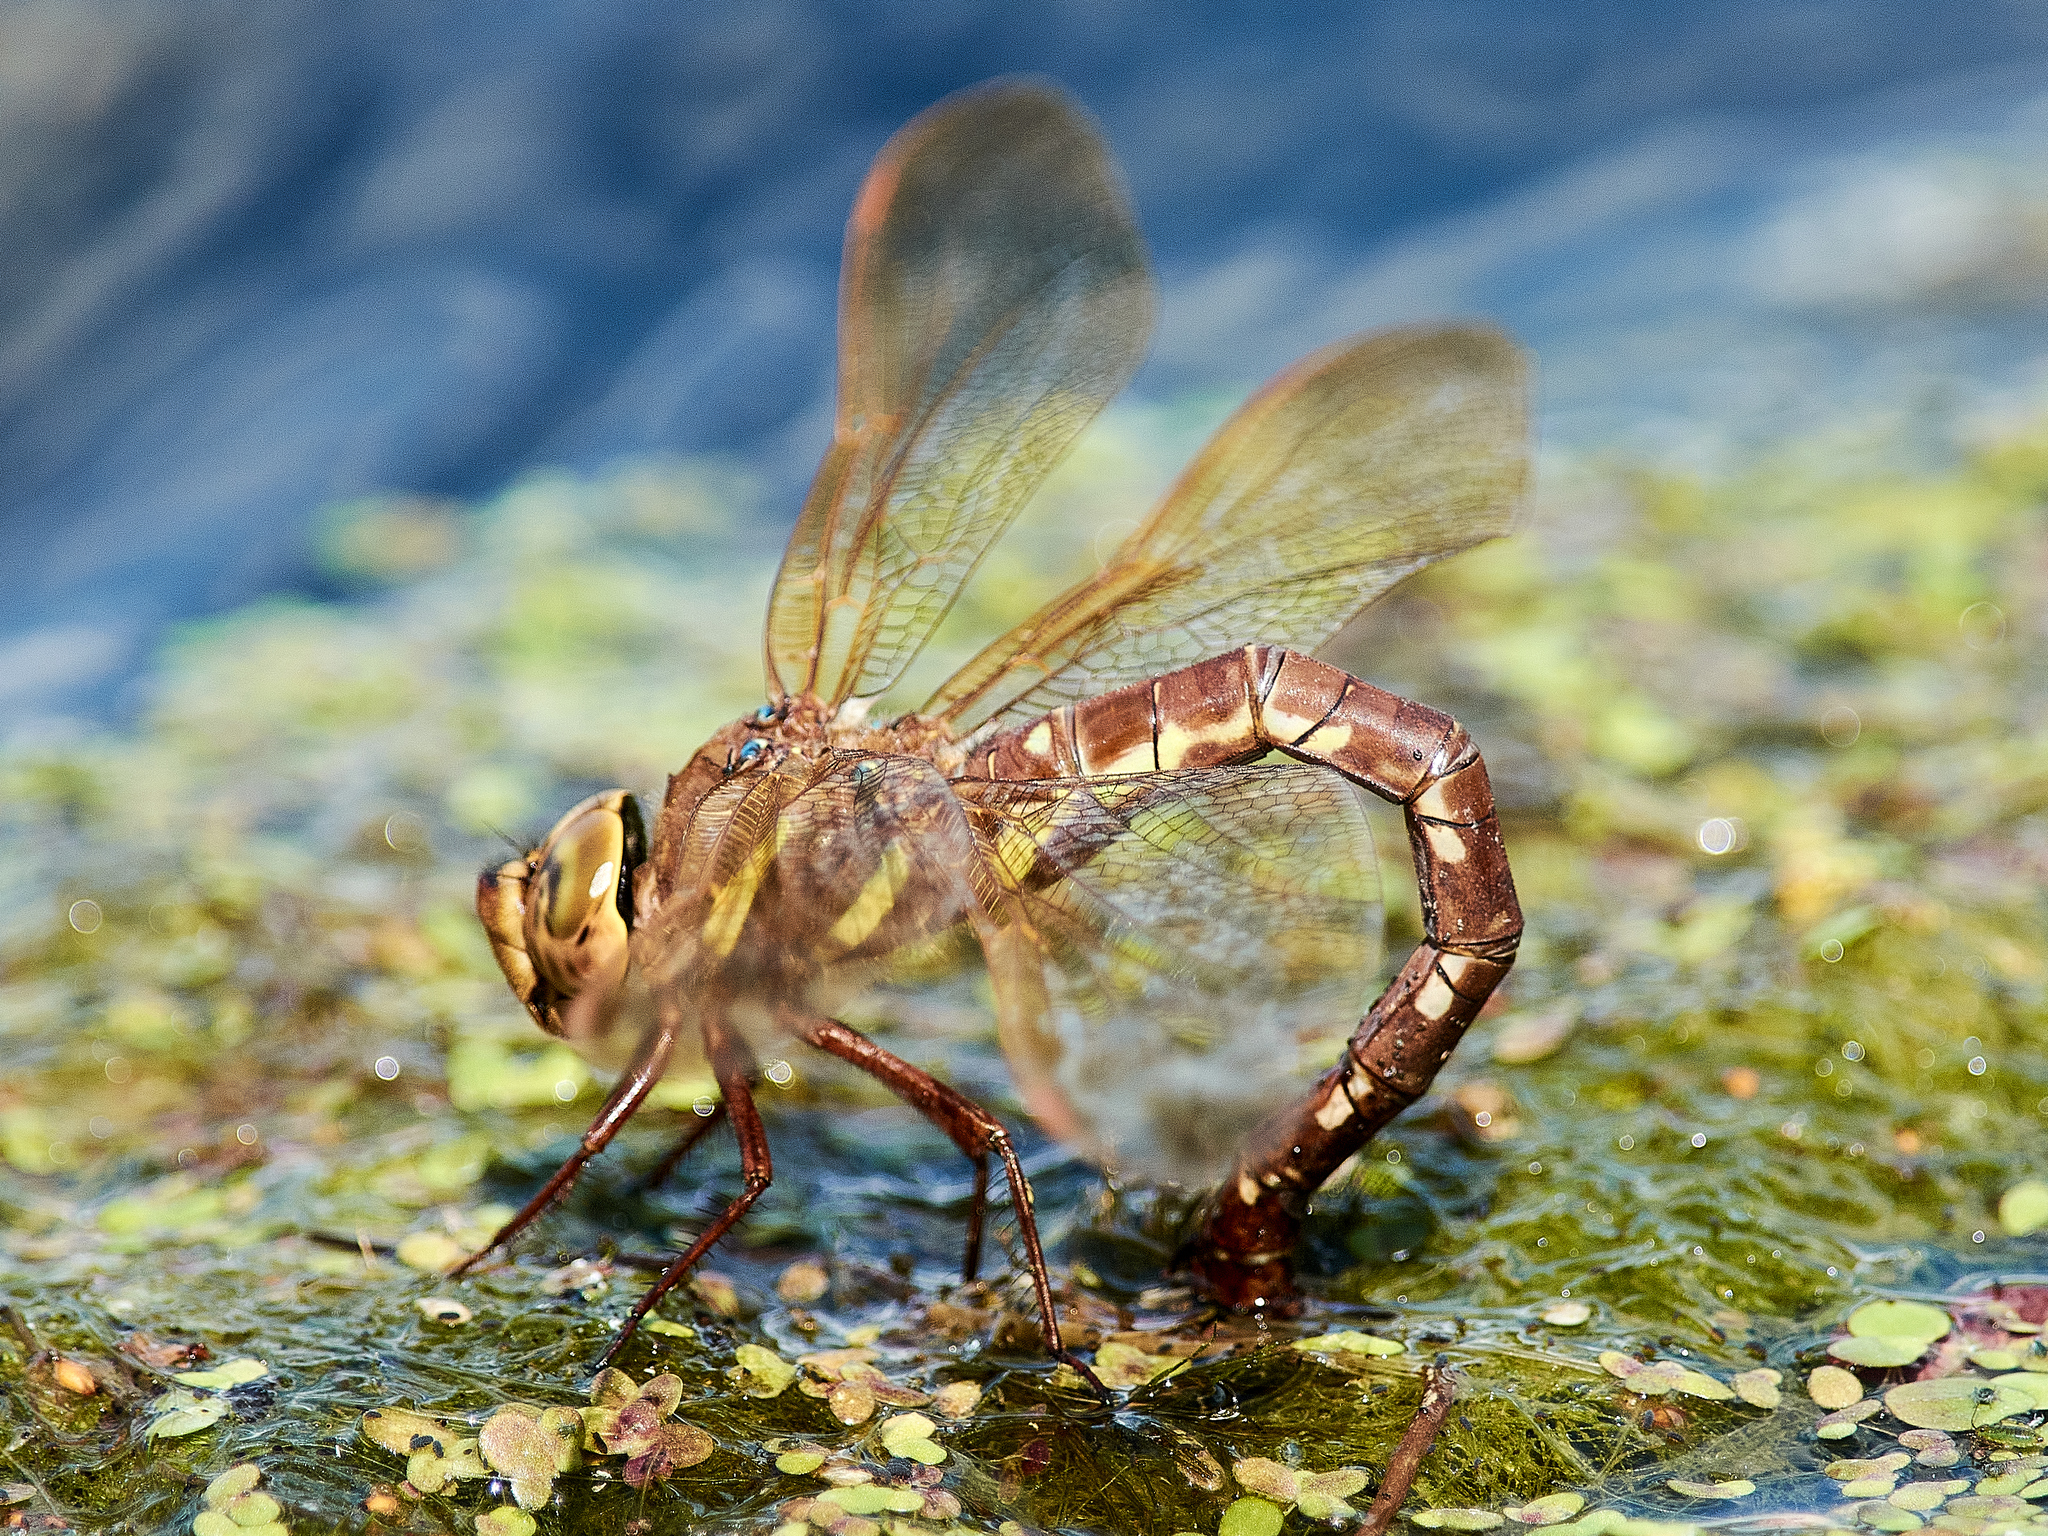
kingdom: Animalia
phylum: Arthropoda
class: Insecta
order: Odonata
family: Aeshnidae
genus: Aeshna
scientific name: Aeshna grandis
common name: Brown hawker
